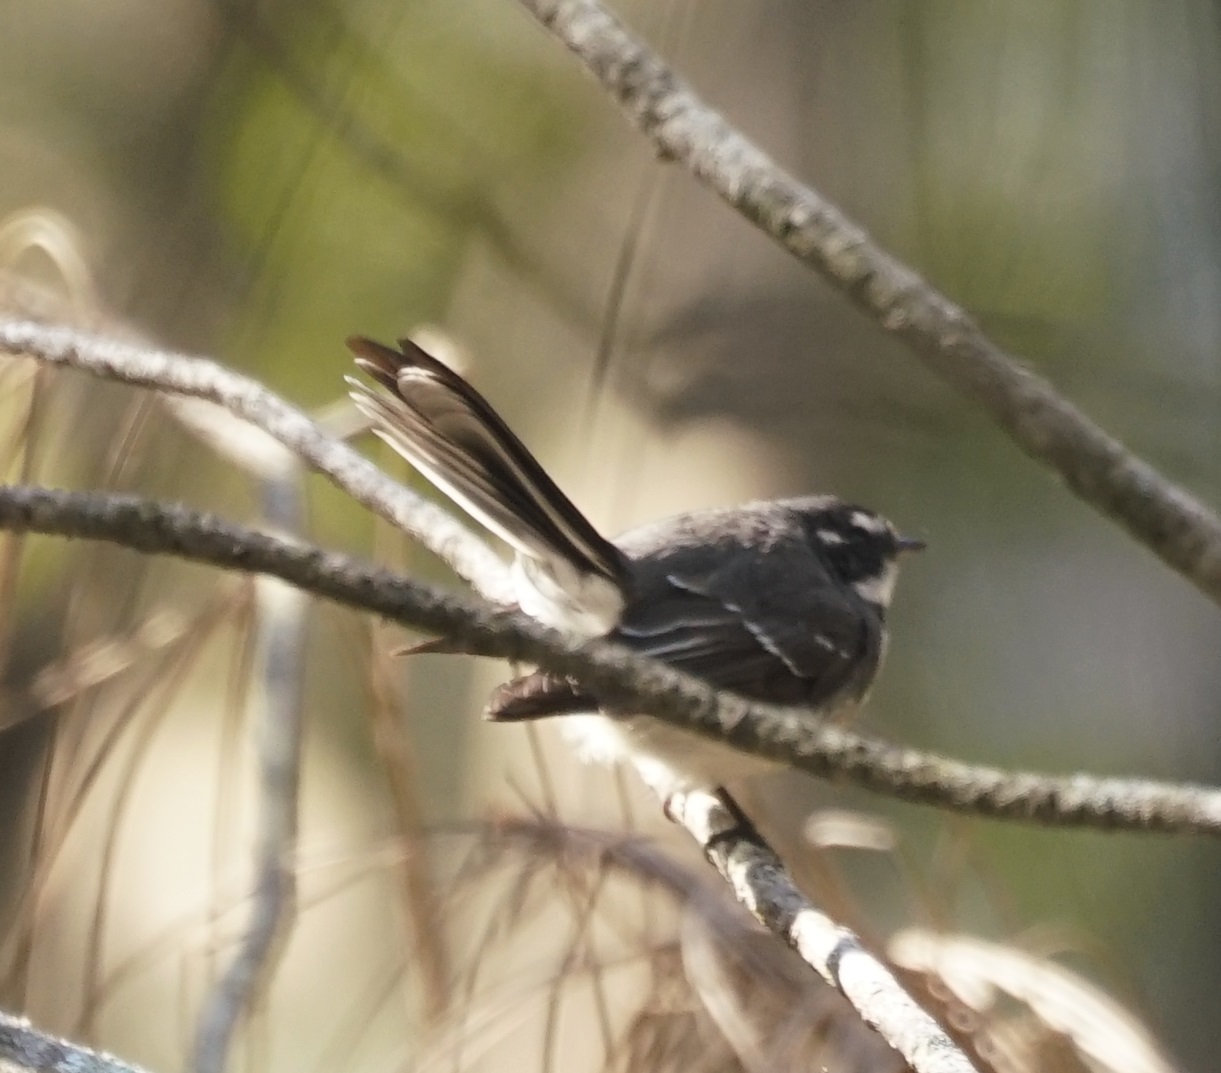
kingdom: Animalia
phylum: Chordata
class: Aves
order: Passeriformes
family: Rhipiduridae
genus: Rhipidura
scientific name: Rhipidura albiscapa
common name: Grey fantail
